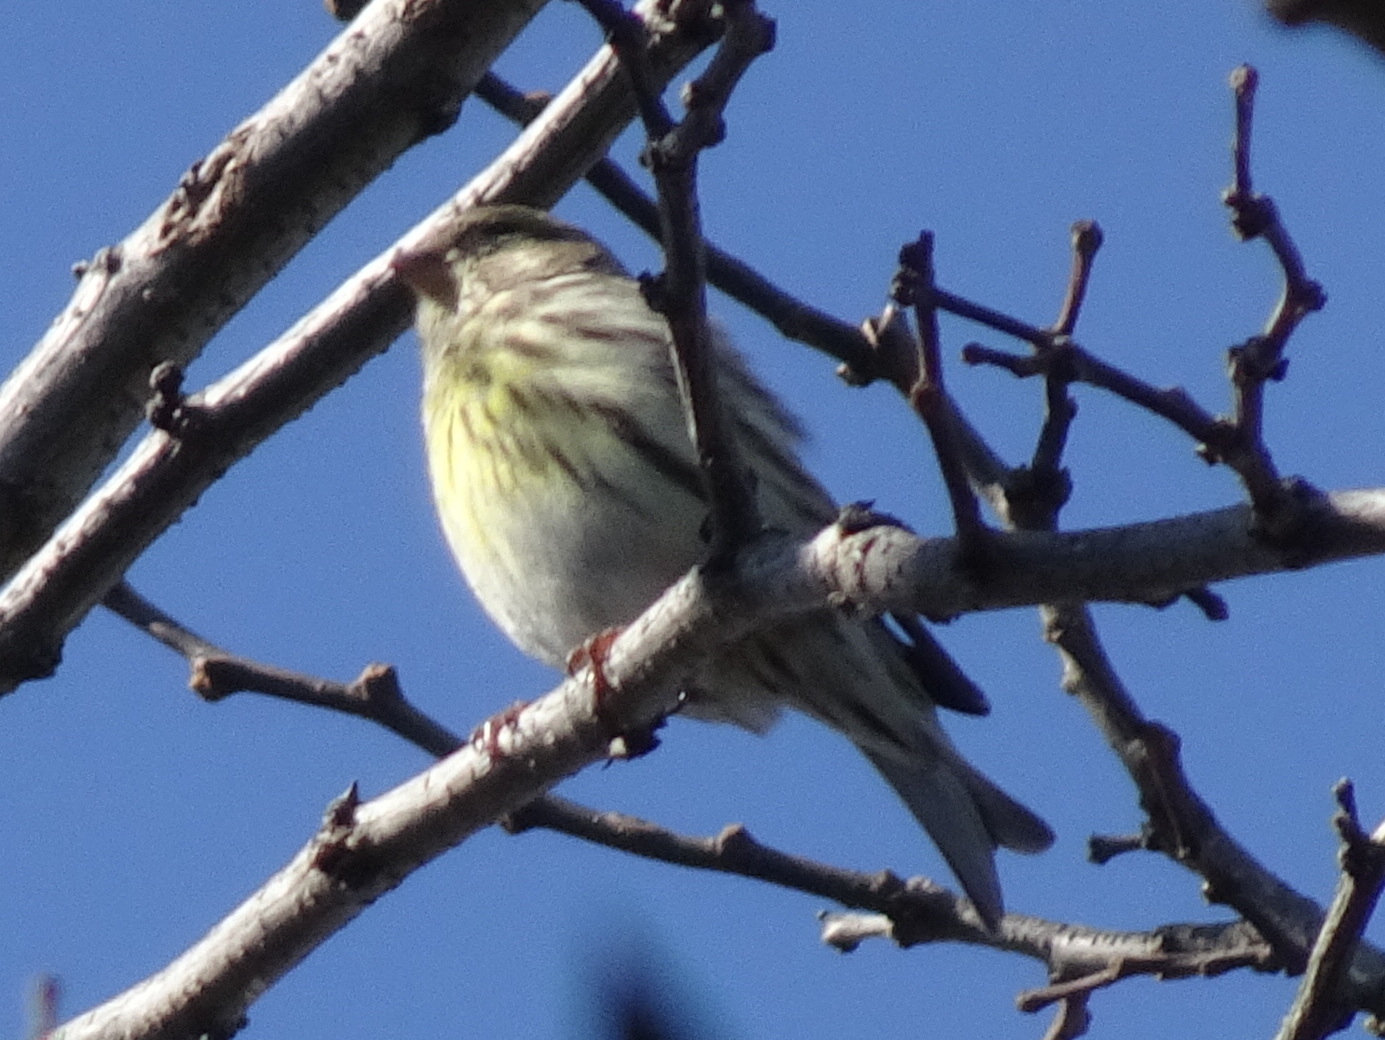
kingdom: Animalia
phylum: Chordata
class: Aves
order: Passeriformes
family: Fringillidae
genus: Serinus
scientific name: Serinus serinus
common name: European serin
